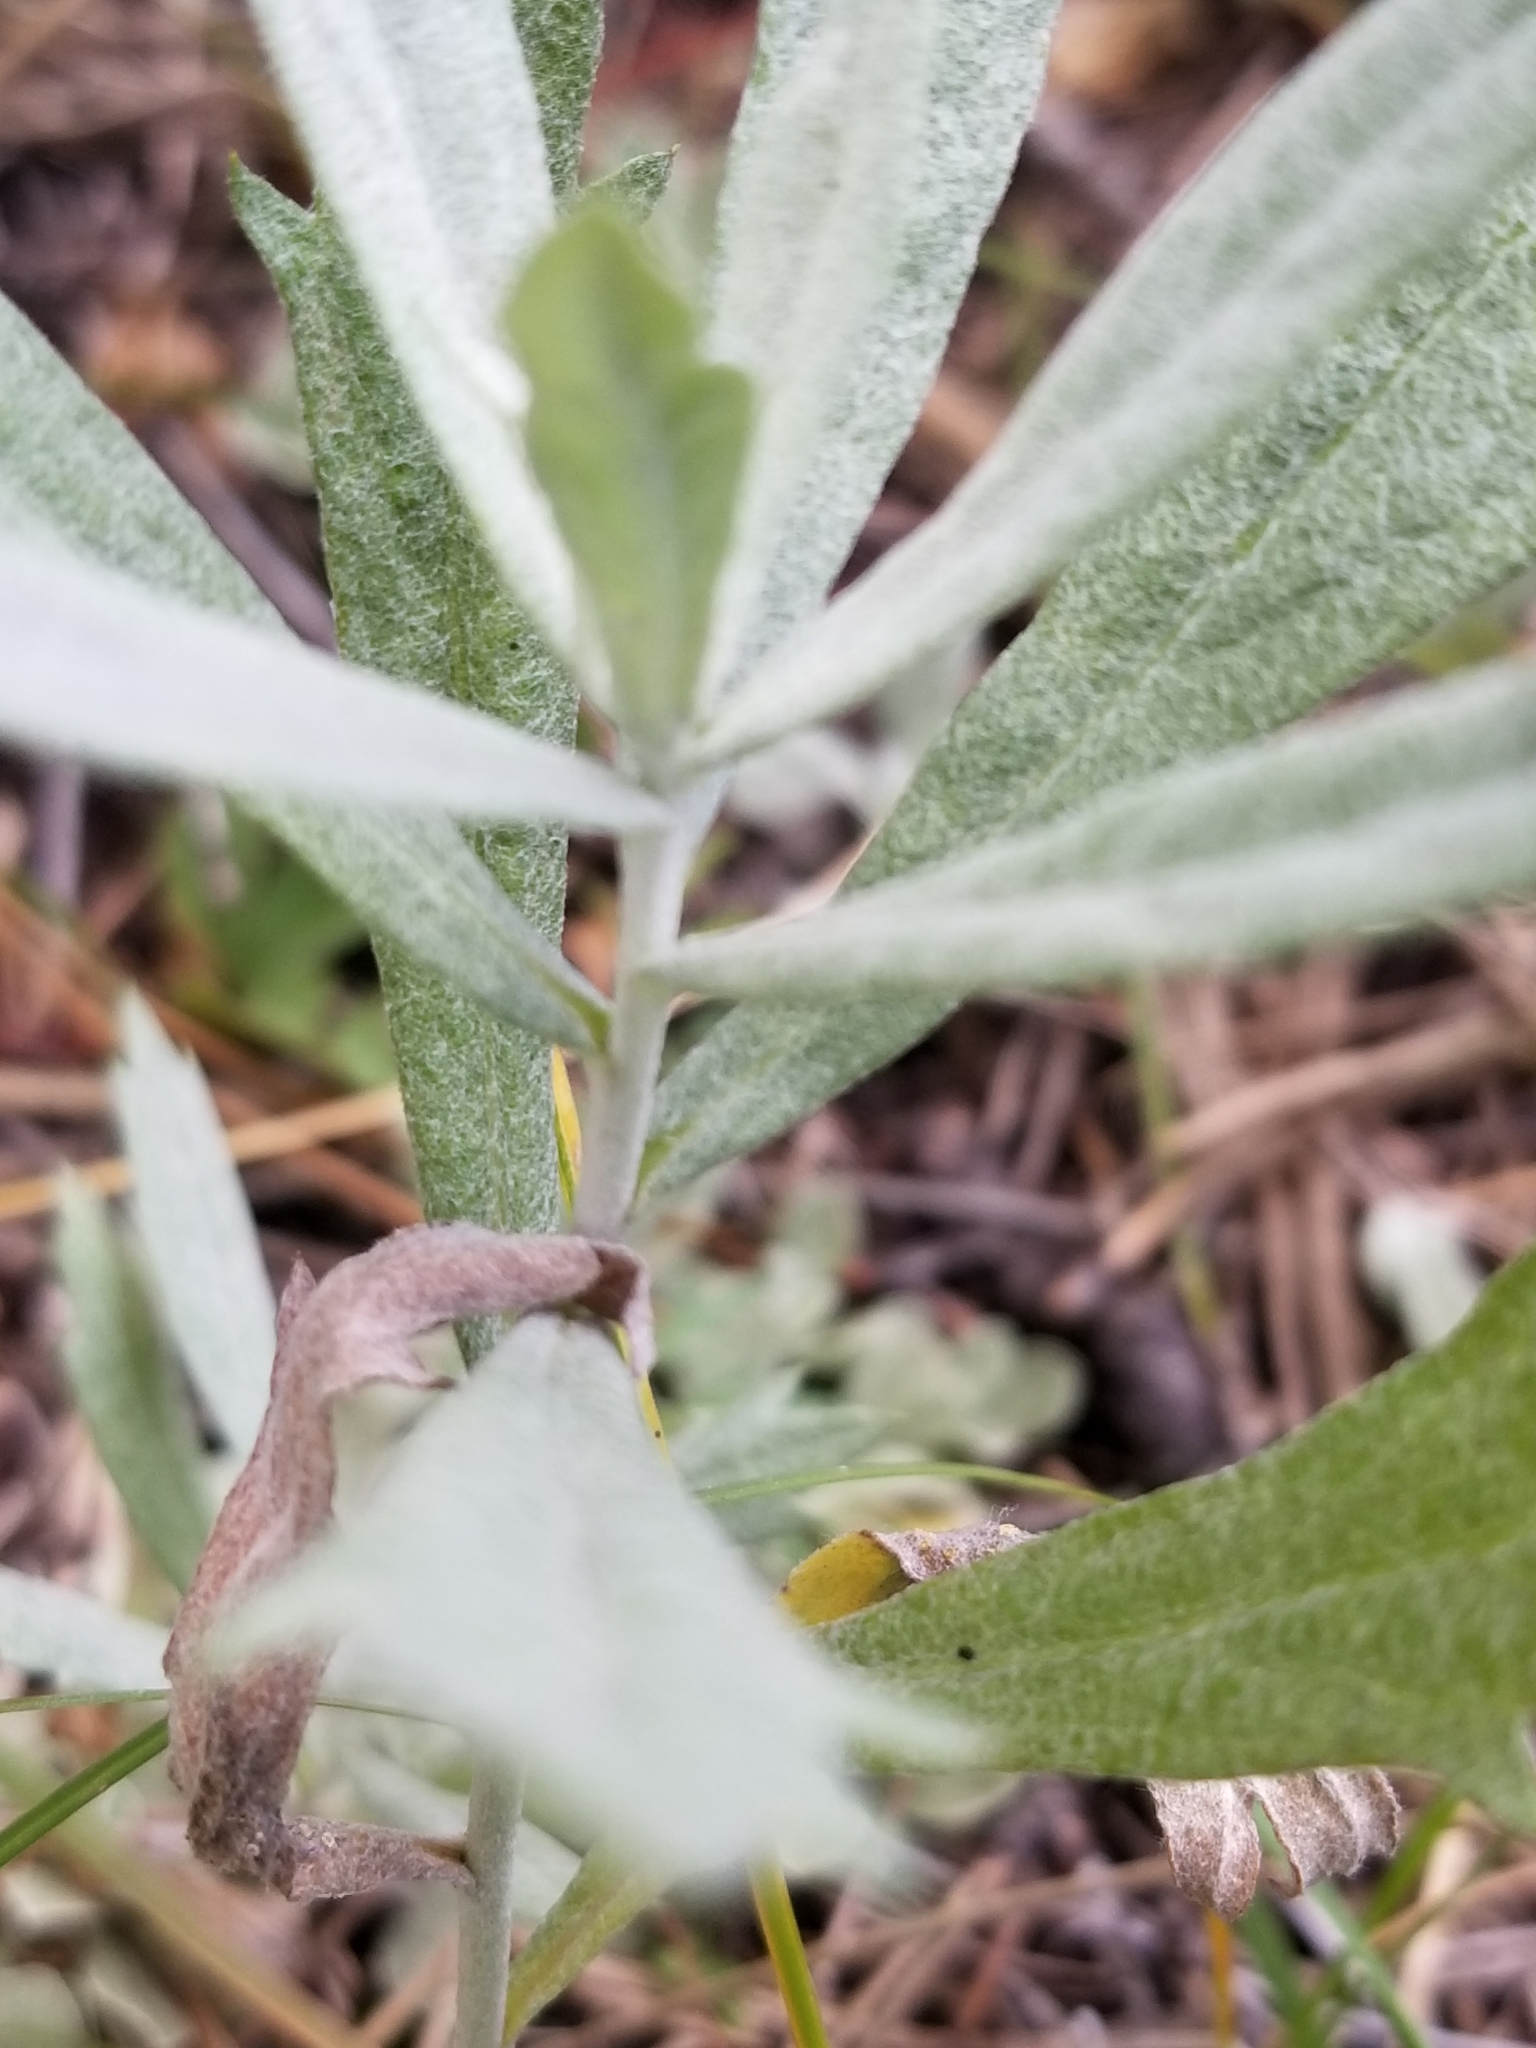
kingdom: Plantae
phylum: Tracheophyta
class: Magnoliopsida
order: Asterales
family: Asteraceae
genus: Artemisia
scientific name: Artemisia ludoviciana
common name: Western mugwort
